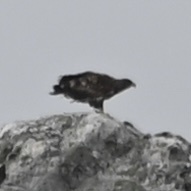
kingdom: Animalia
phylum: Chordata
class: Aves
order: Accipitriformes
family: Accipitridae
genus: Haliaeetus
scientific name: Haliaeetus albicilla
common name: White-tailed eagle
